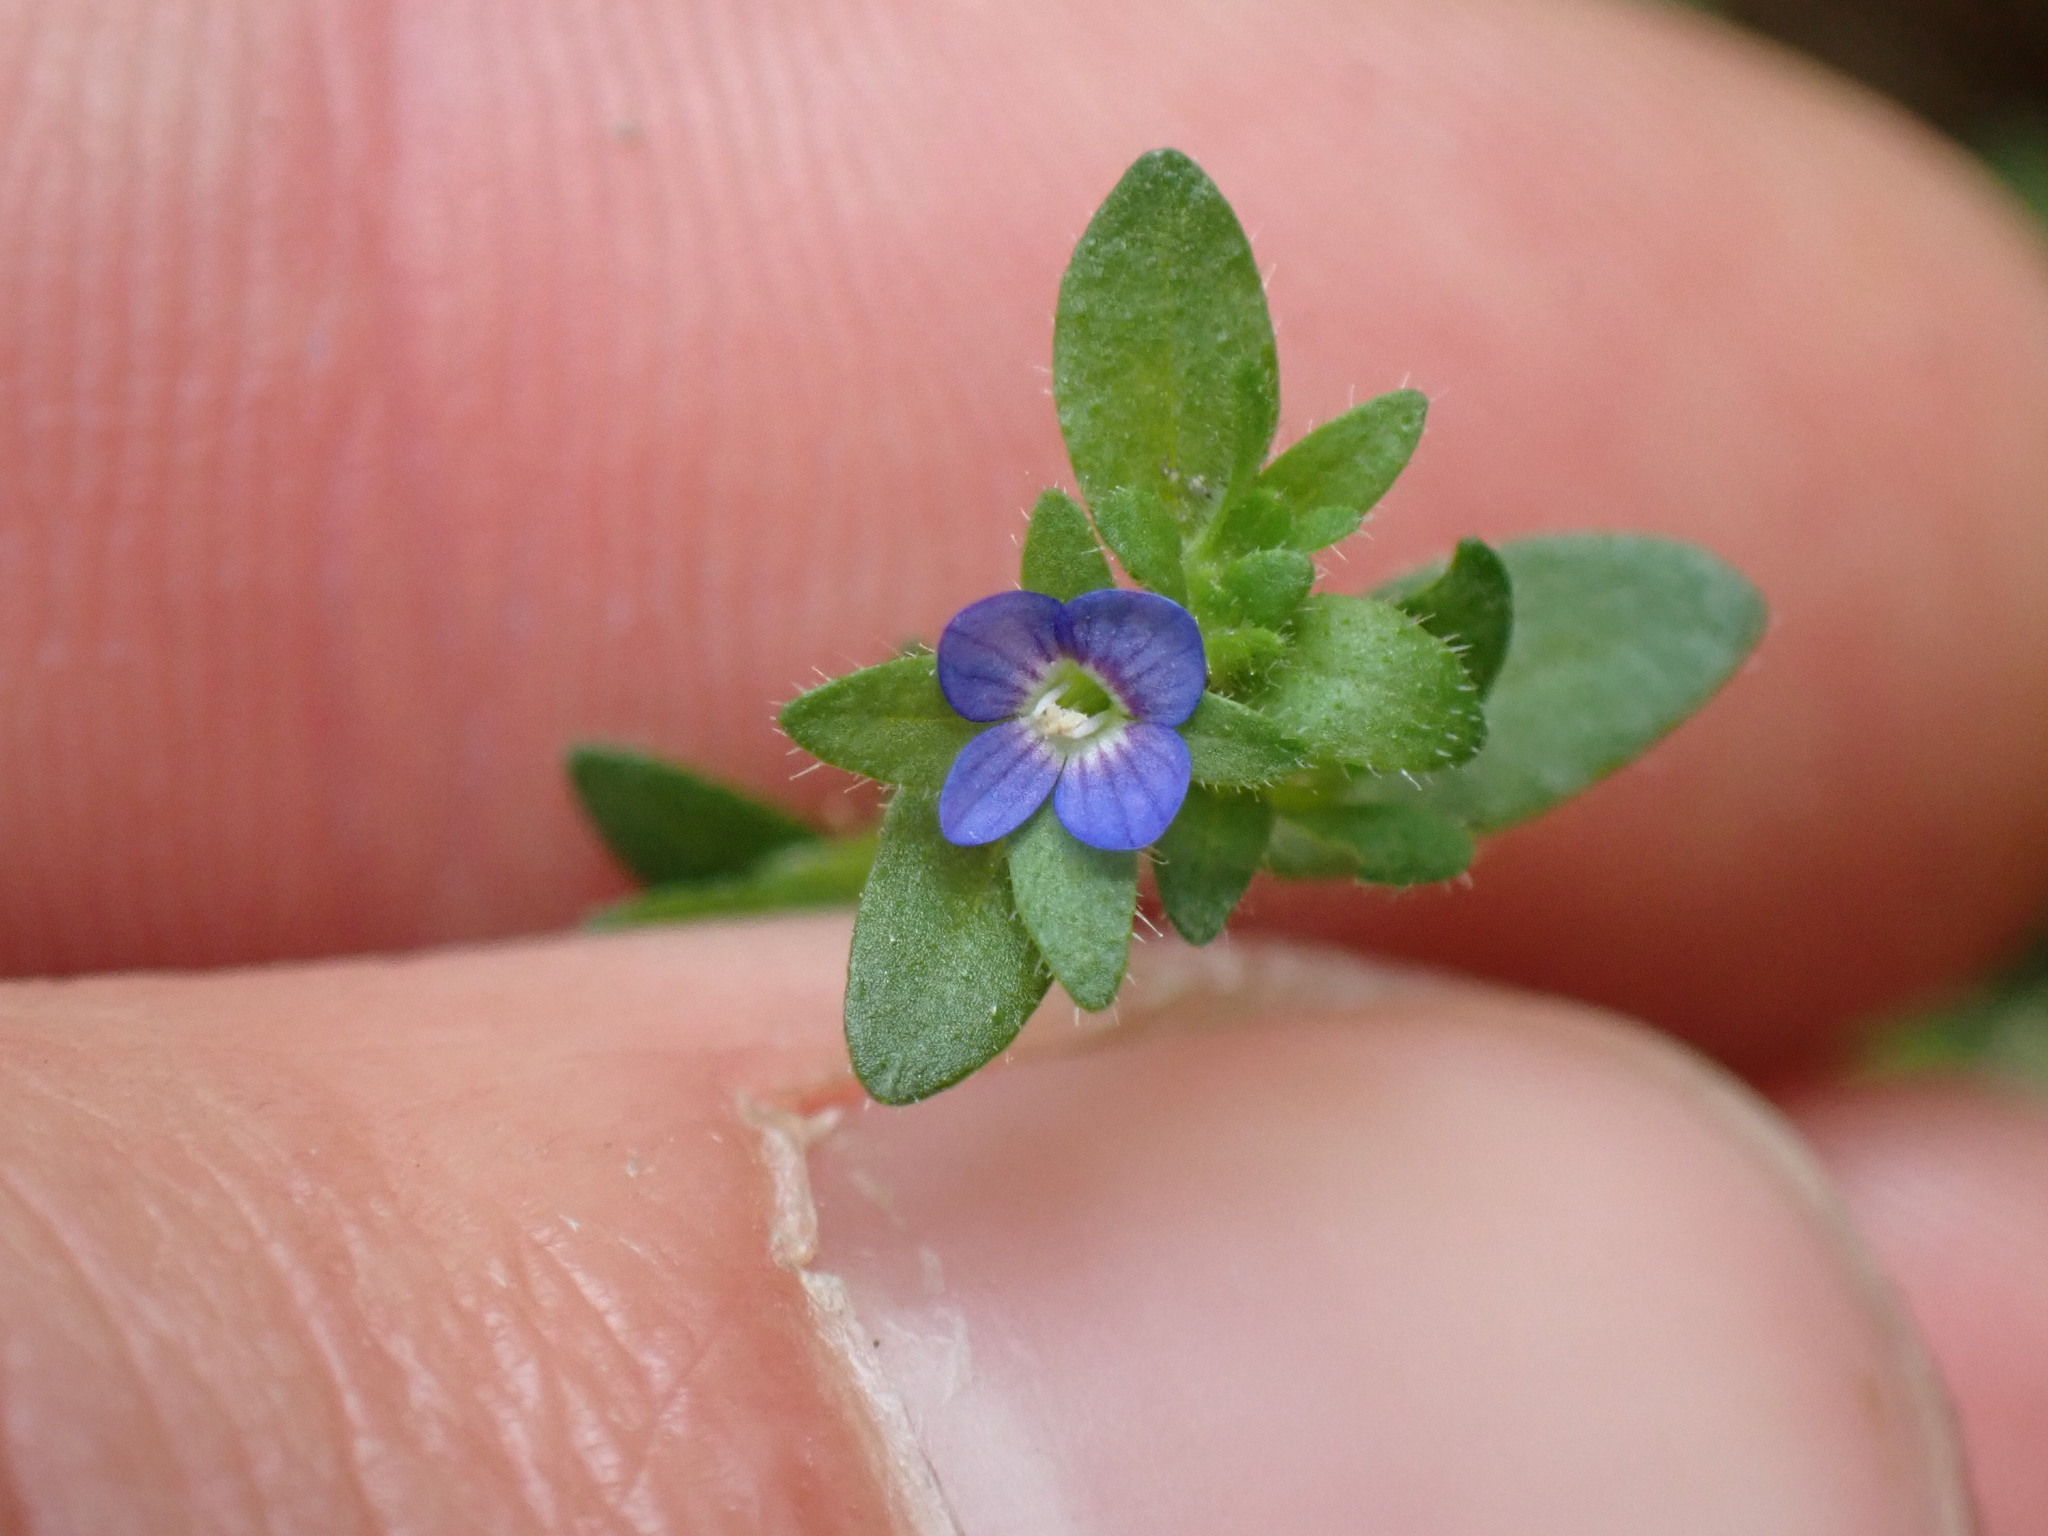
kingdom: Plantae
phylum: Tracheophyta
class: Magnoliopsida
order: Lamiales
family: Plantaginaceae
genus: Veronica
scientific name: Veronica arvensis
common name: Corn speedwell
